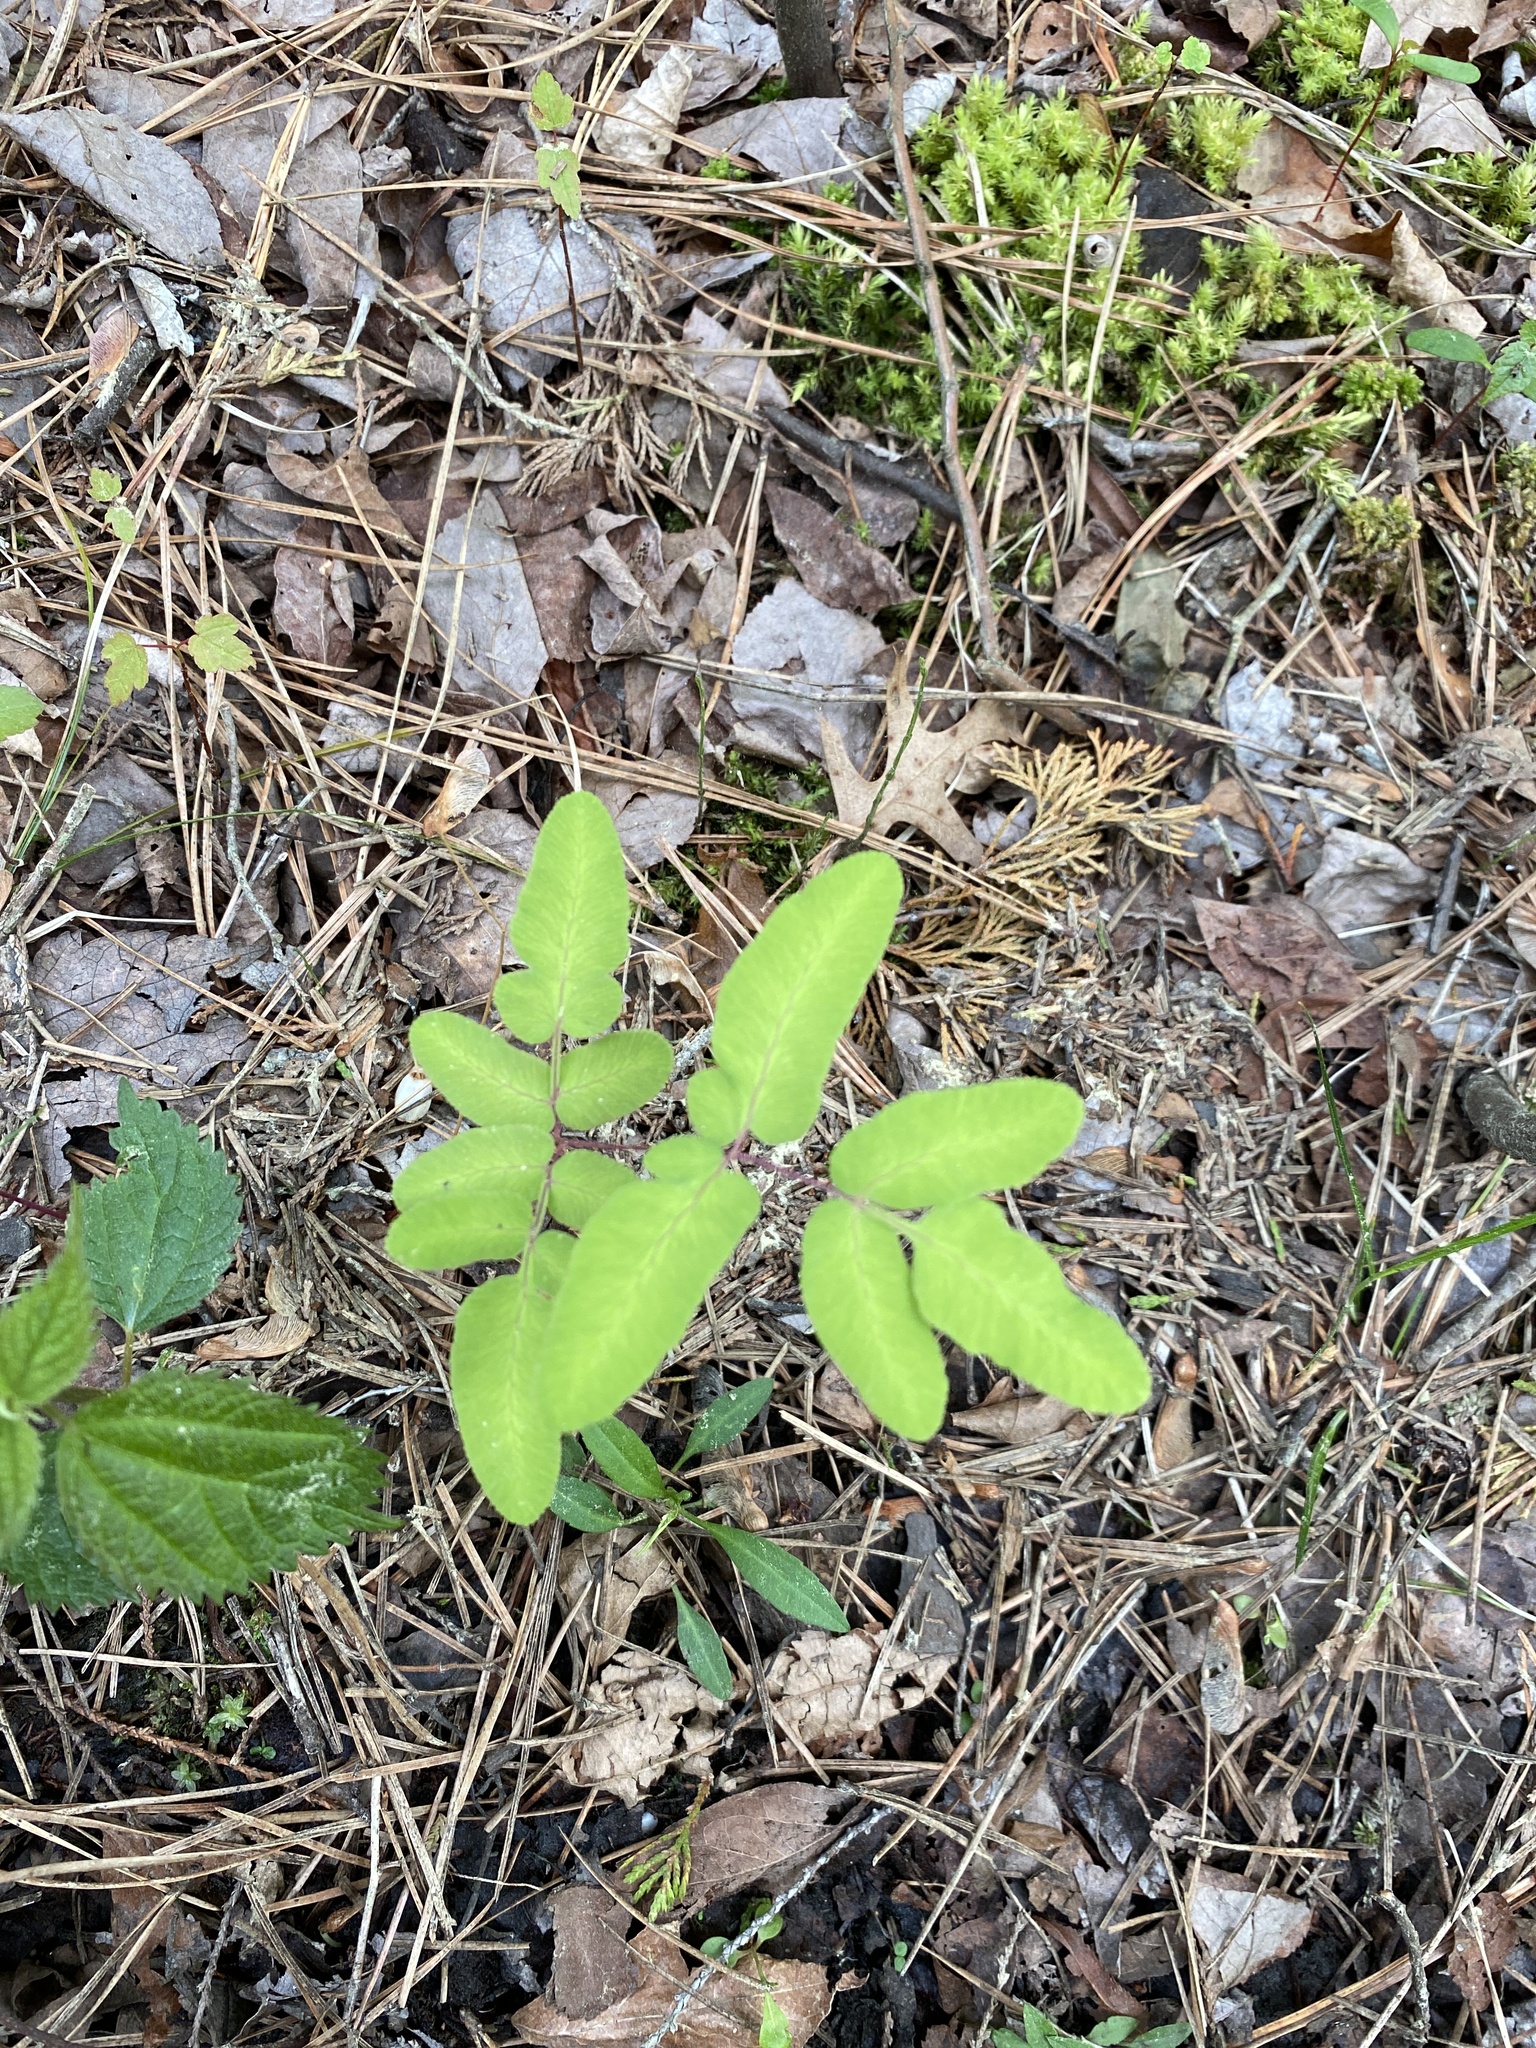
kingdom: Plantae
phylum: Tracheophyta
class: Polypodiopsida
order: Osmundales
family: Osmundaceae
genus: Osmunda
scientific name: Osmunda spectabilis
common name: American royal fern
